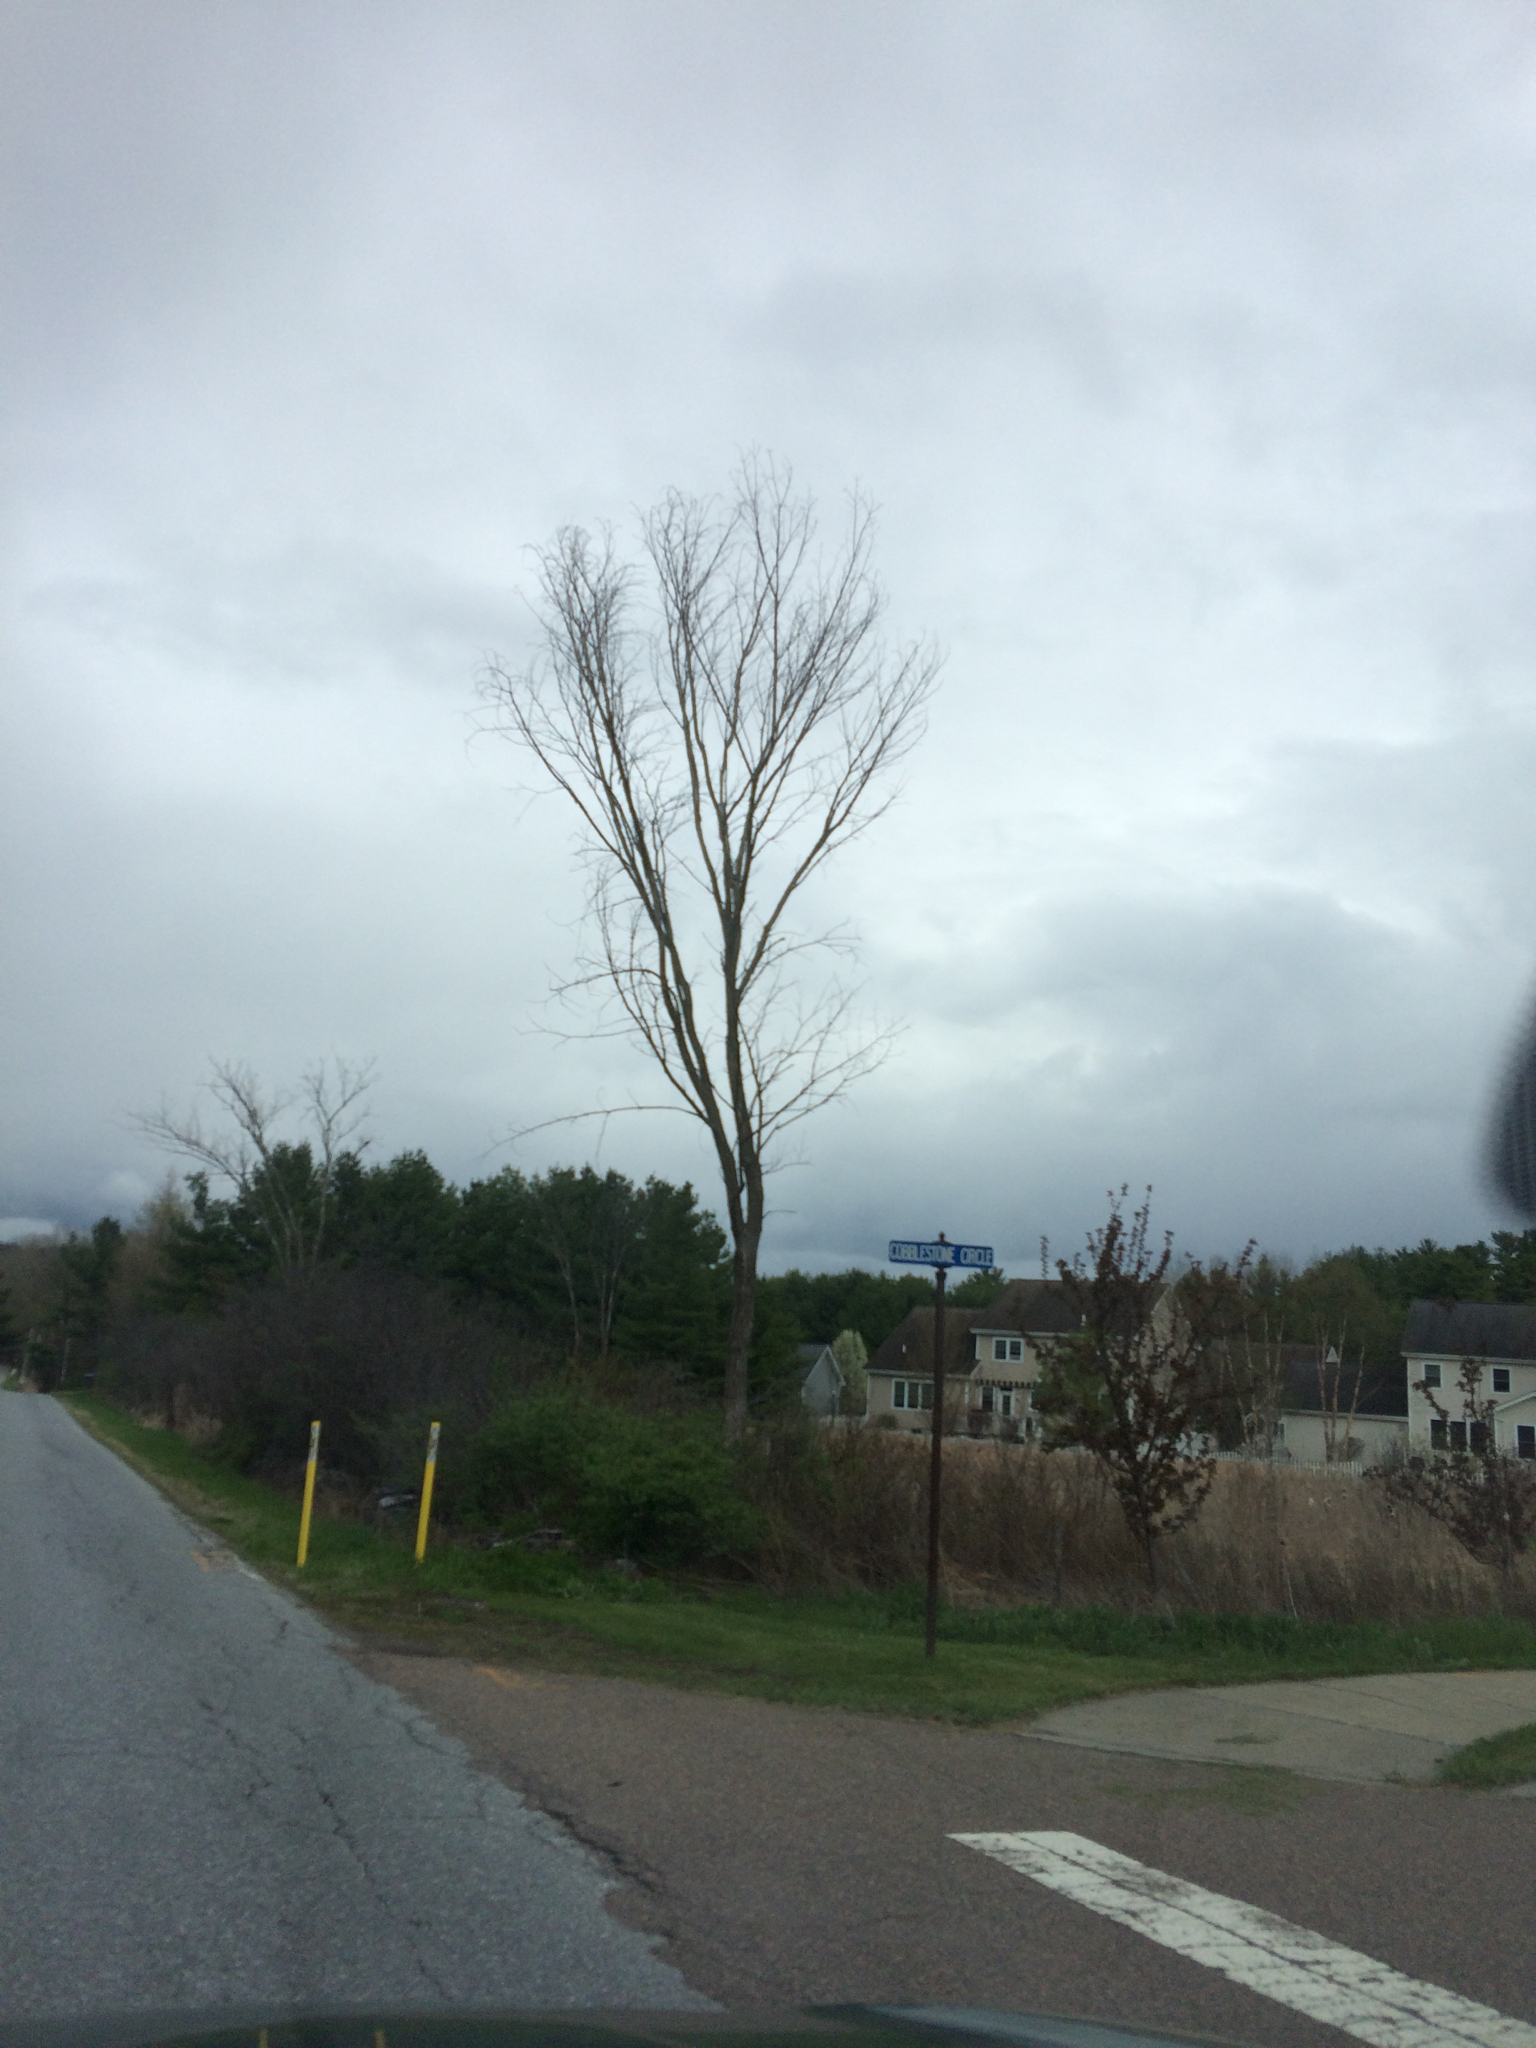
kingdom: Plantae
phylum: Tracheophyta
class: Magnoliopsida
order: Rosales
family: Ulmaceae
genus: Ulmus
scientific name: Ulmus americana
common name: American elm
